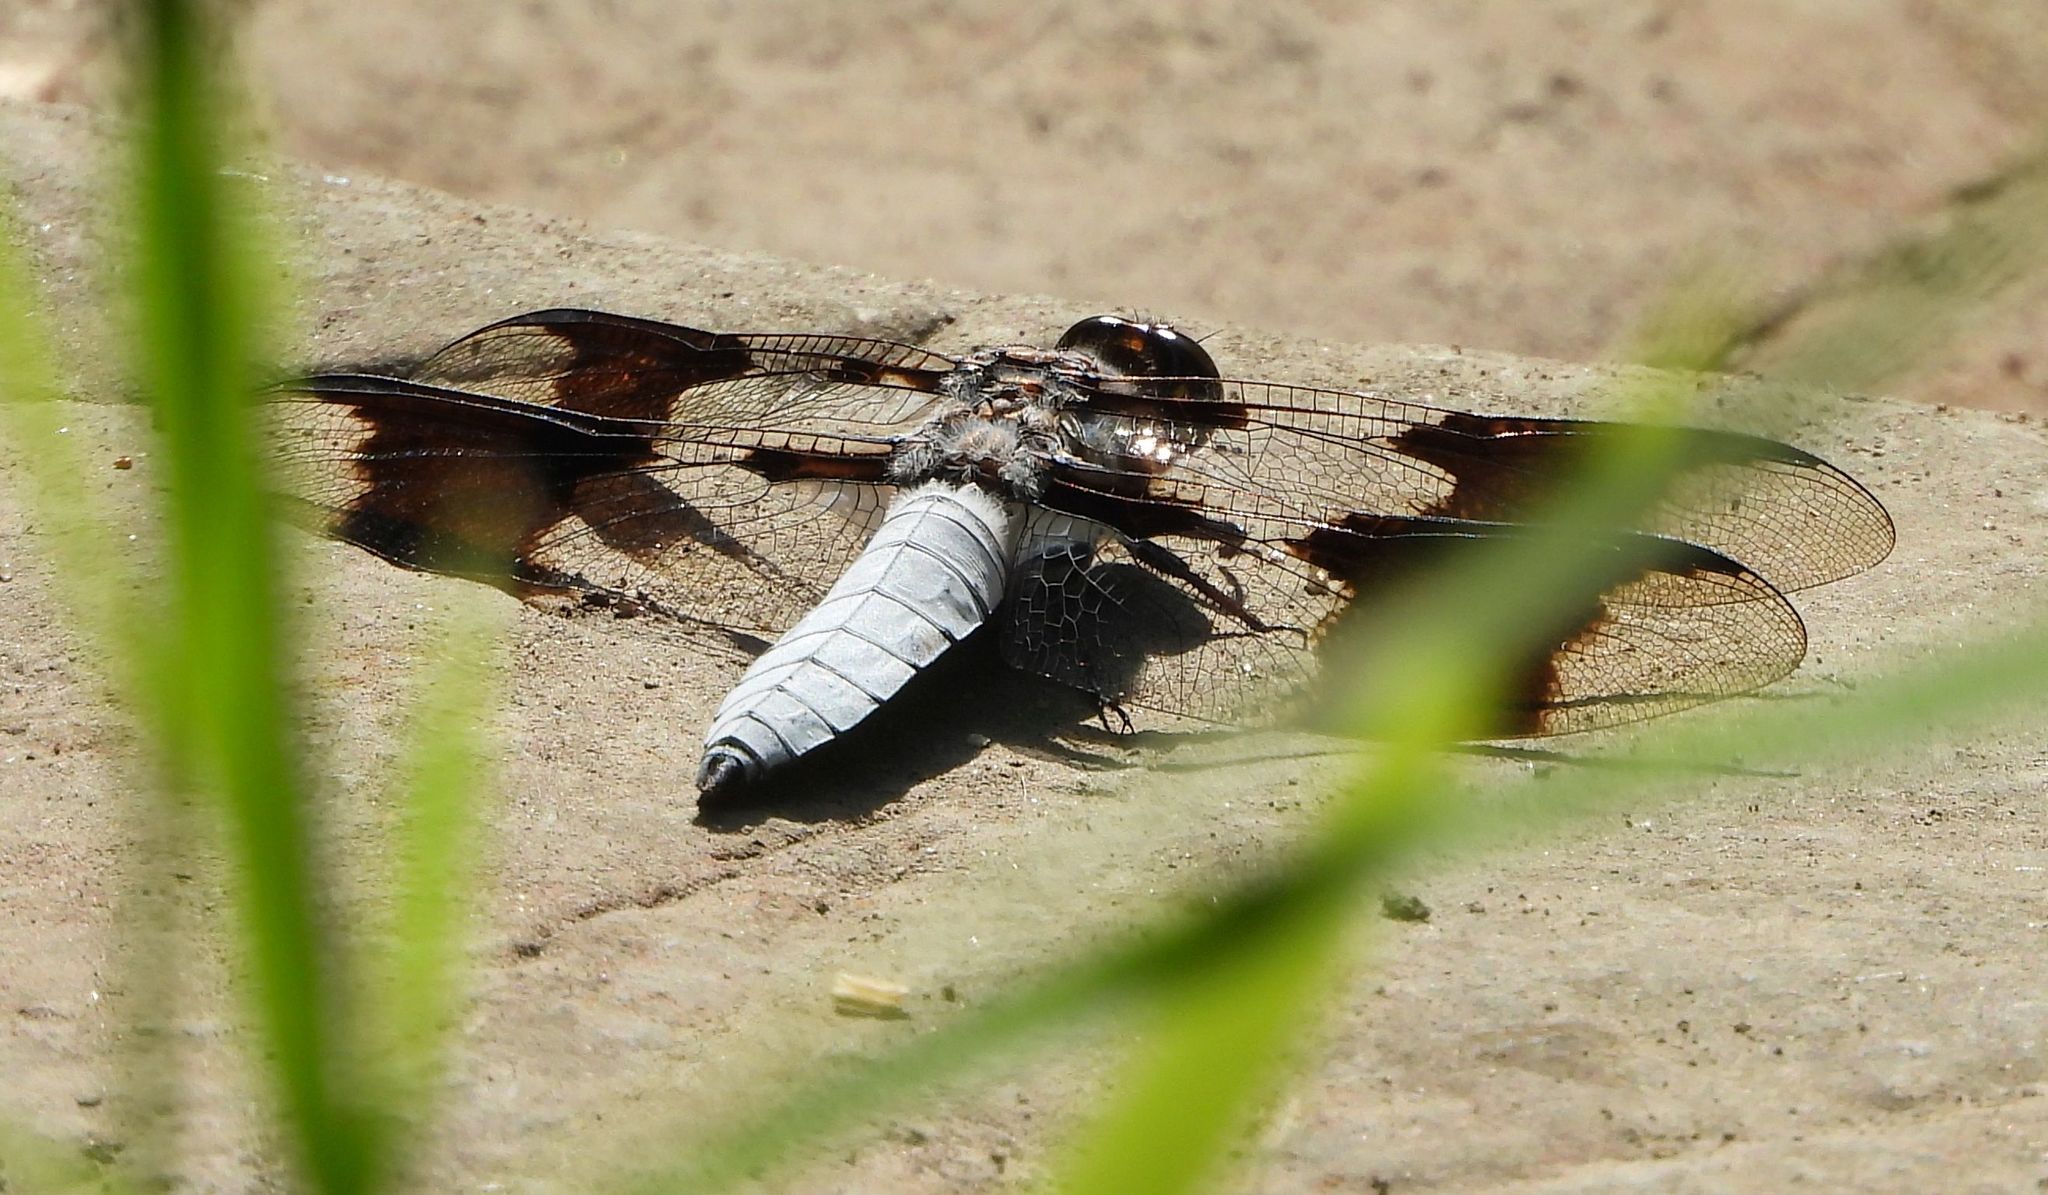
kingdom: Animalia
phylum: Arthropoda
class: Insecta
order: Odonata
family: Libellulidae
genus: Plathemis
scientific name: Plathemis lydia
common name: Common whitetail
